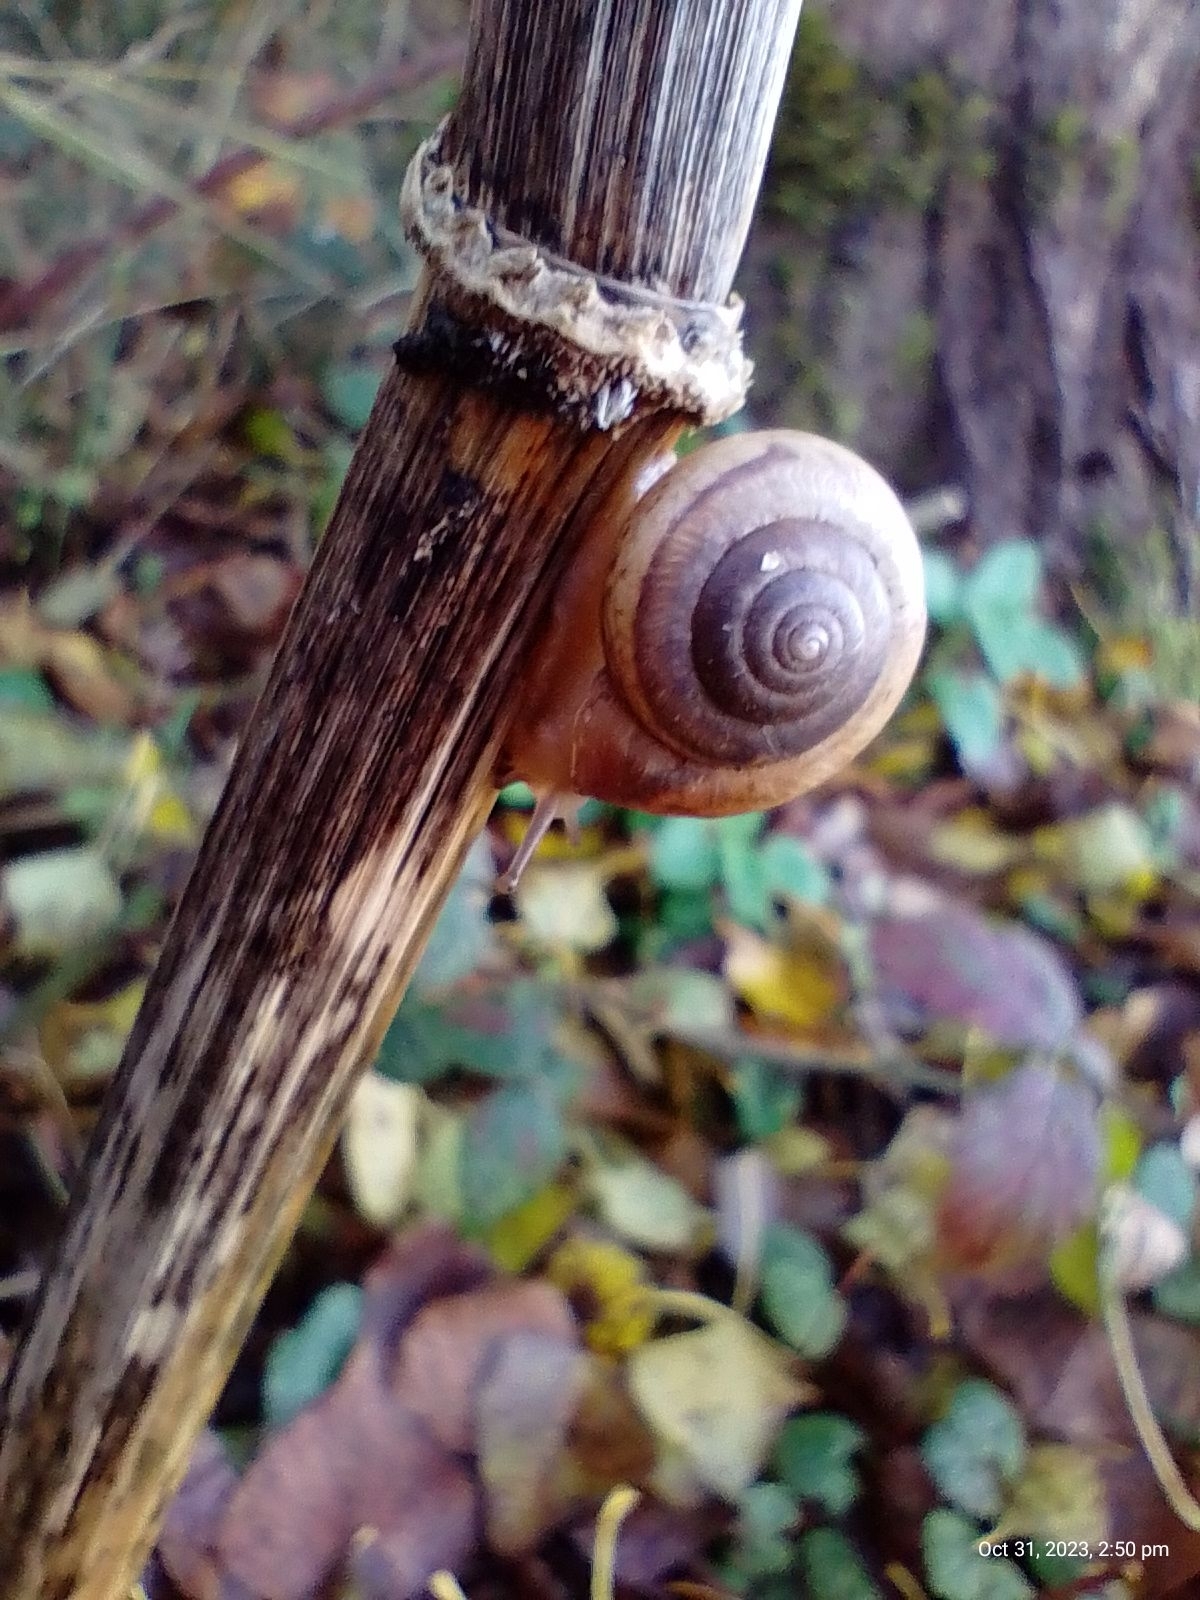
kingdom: Animalia
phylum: Mollusca
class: Gastropoda
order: Stylommatophora
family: Hygromiidae
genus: Monacha
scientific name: Monacha cantiana
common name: Kentish snail
